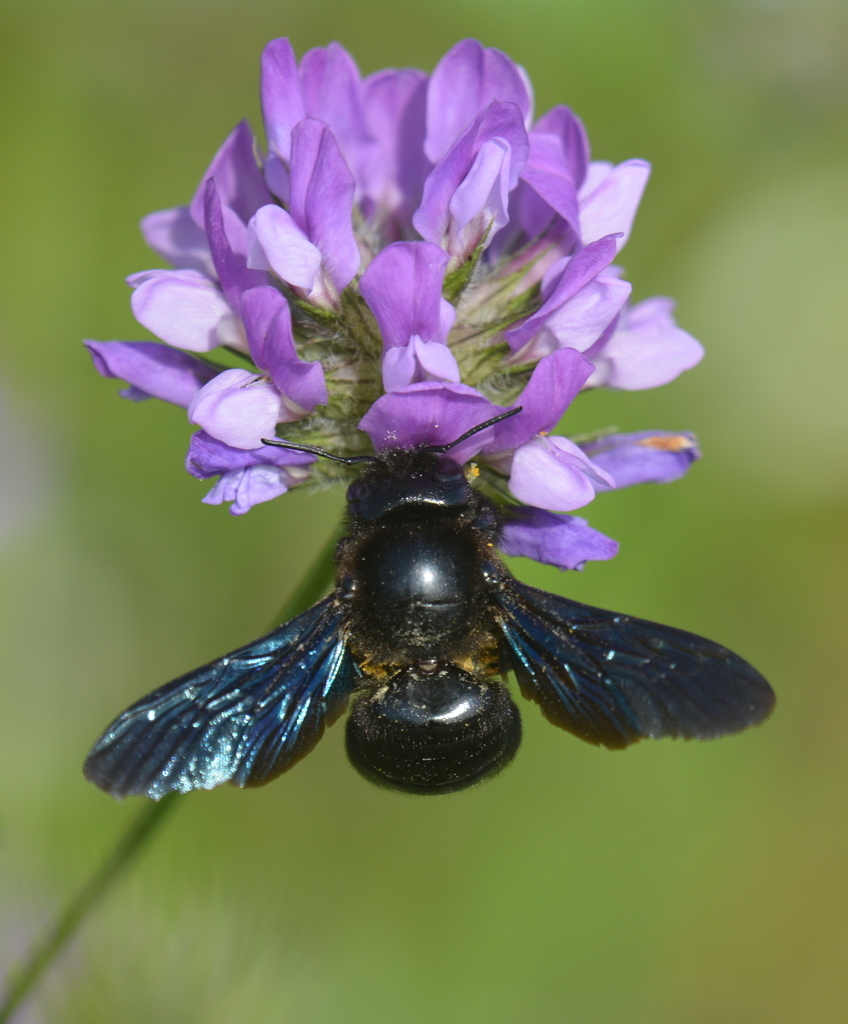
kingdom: Animalia
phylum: Arthropoda
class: Insecta
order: Hymenoptera
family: Apidae
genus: Xylocopa
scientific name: Xylocopa violacea
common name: Violet carpenter bee
